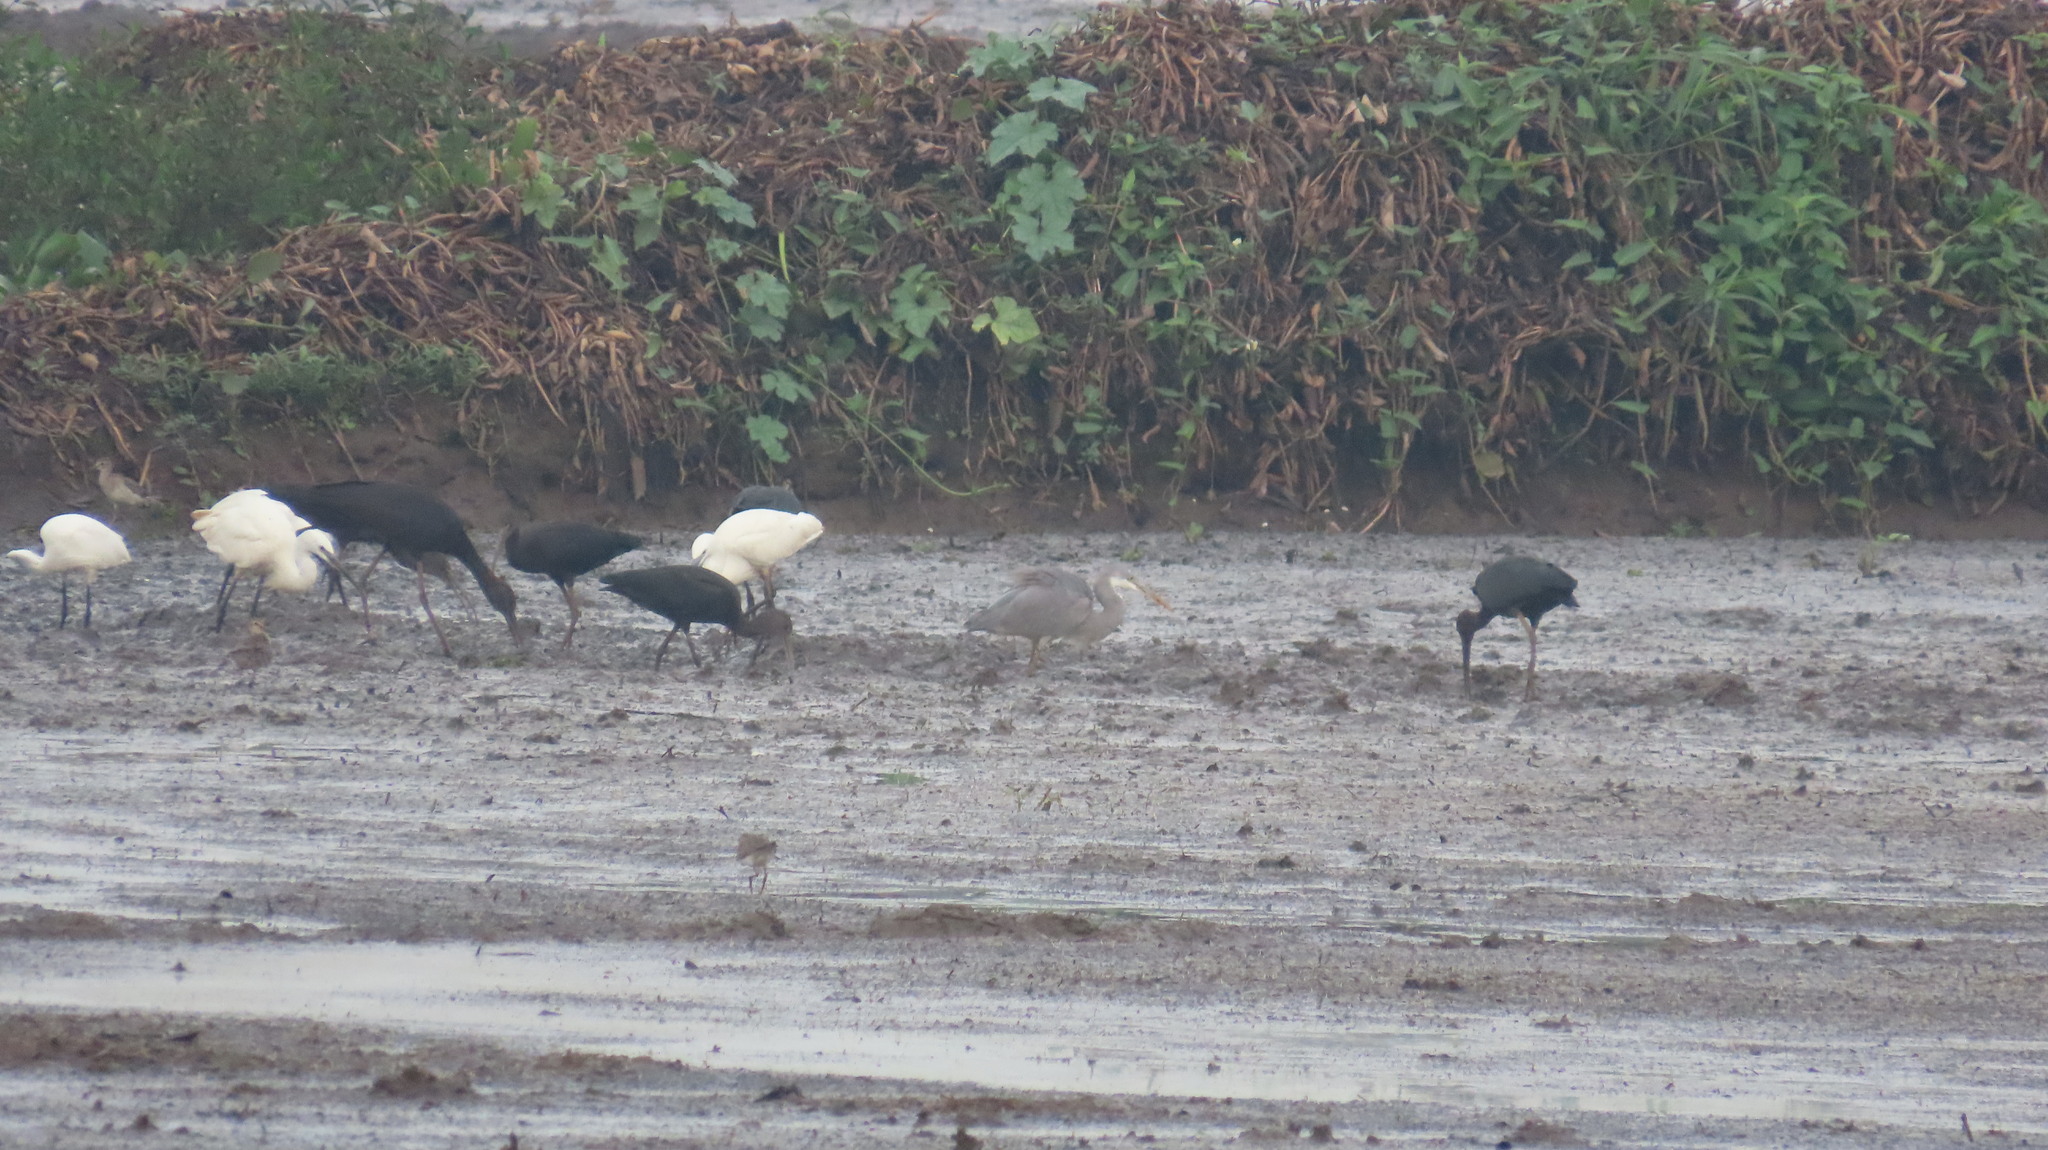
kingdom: Animalia
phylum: Chordata
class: Aves
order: Pelecaniformes
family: Ardeidae
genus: Egretta
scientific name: Egretta garzetta
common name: Little egret
